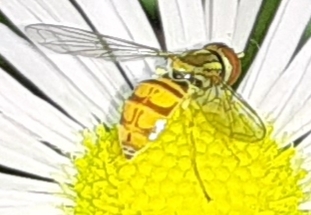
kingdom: Animalia
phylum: Arthropoda
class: Insecta
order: Diptera
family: Syrphidae
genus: Toxomerus
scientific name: Toxomerus marginatus
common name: Syrphid fly
